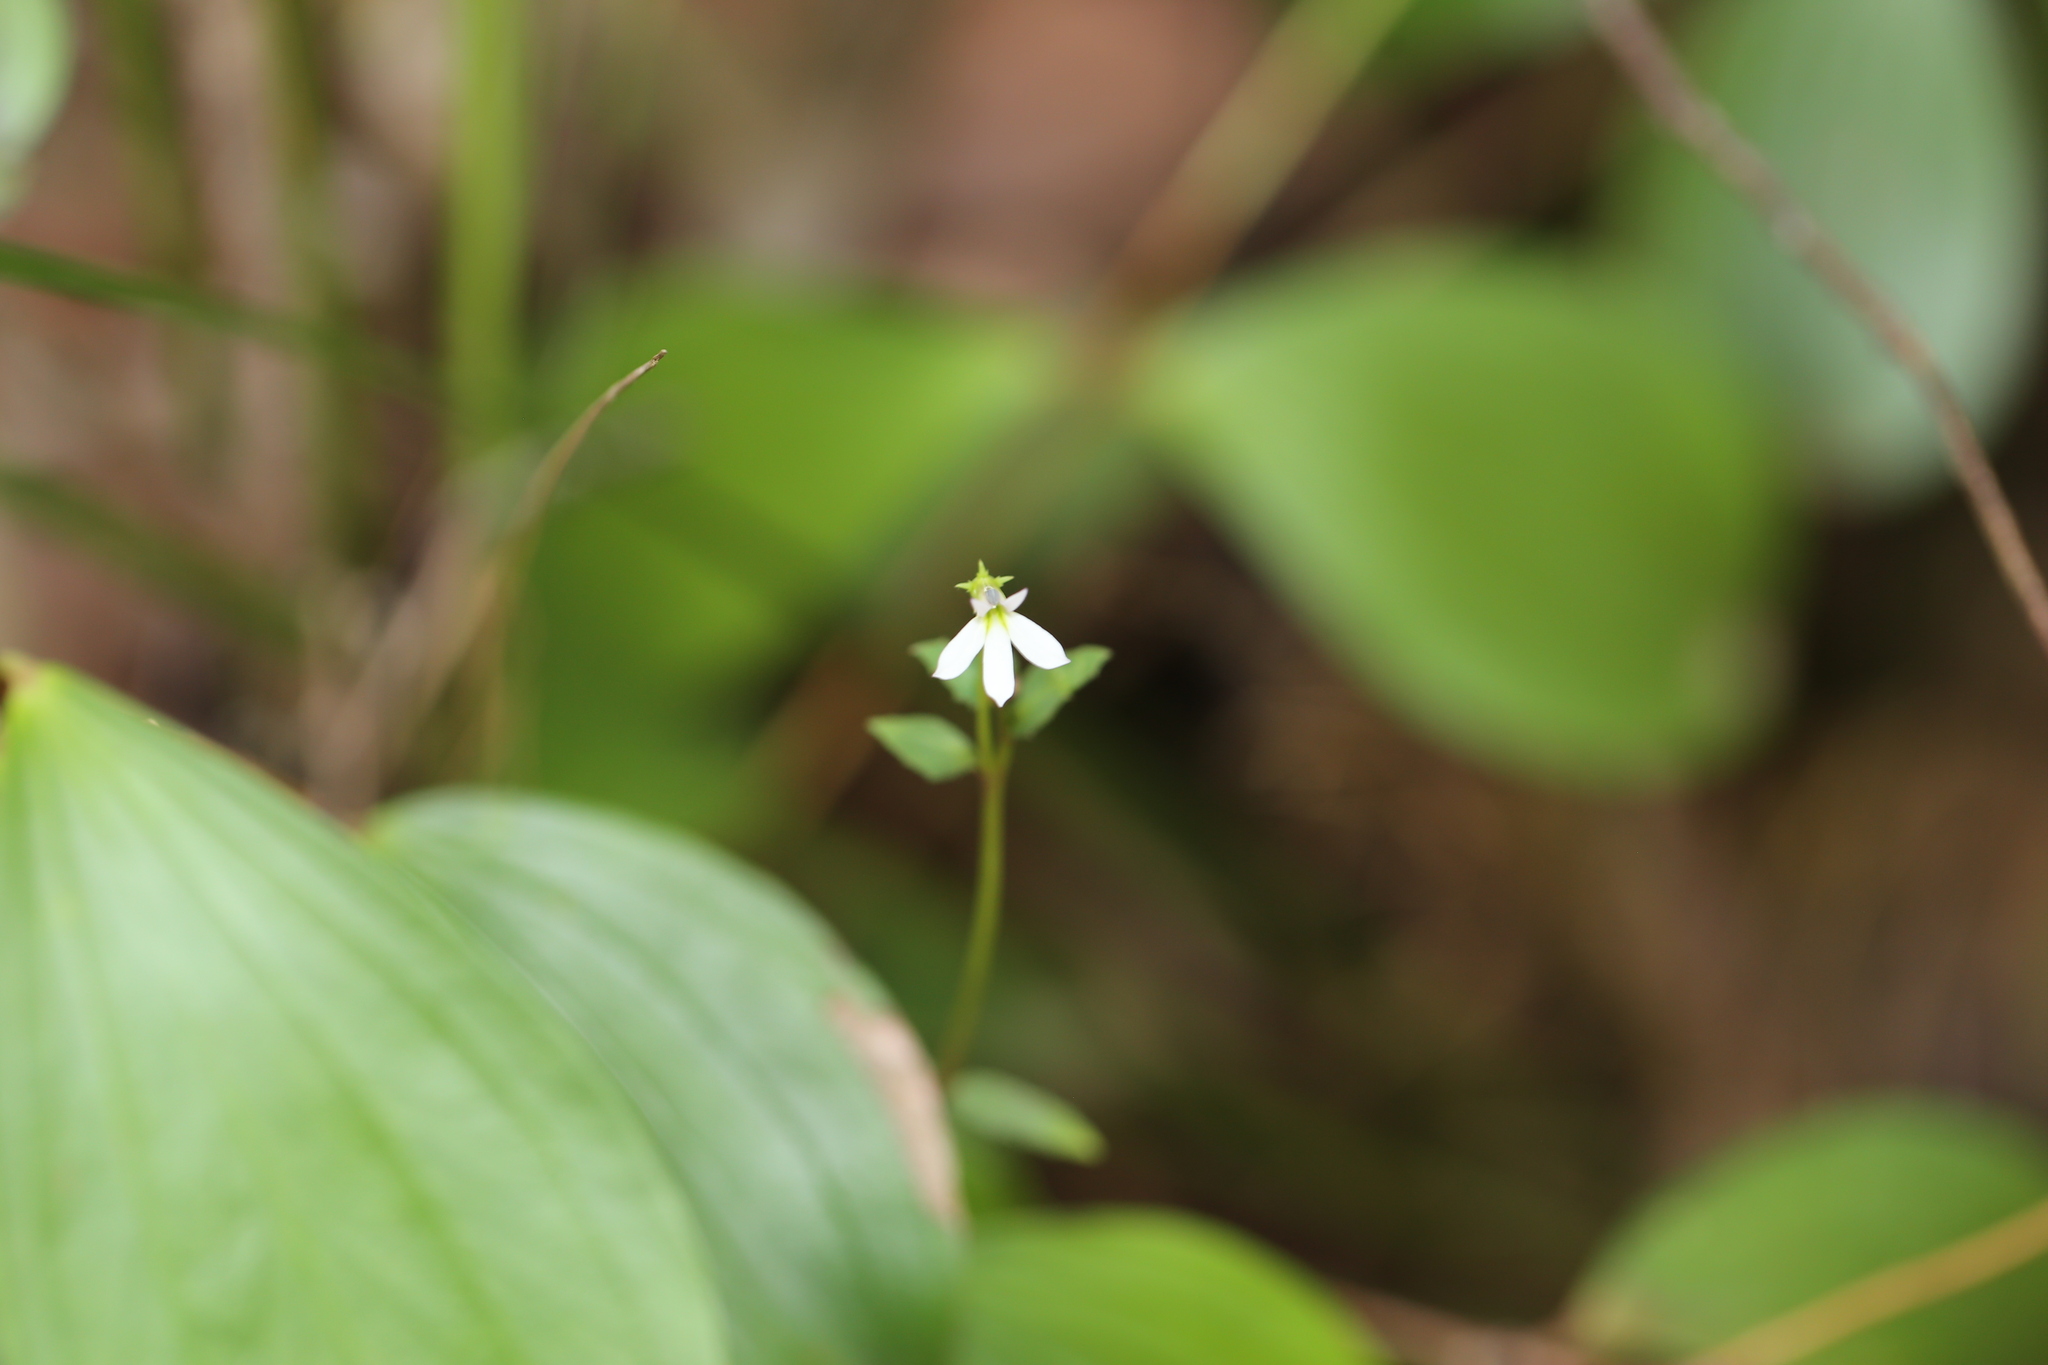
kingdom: Plantae
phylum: Tracheophyta
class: Magnoliopsida
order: Asterales
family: Campanulaceae
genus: Lobelia
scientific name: Lobelia purpurascens
